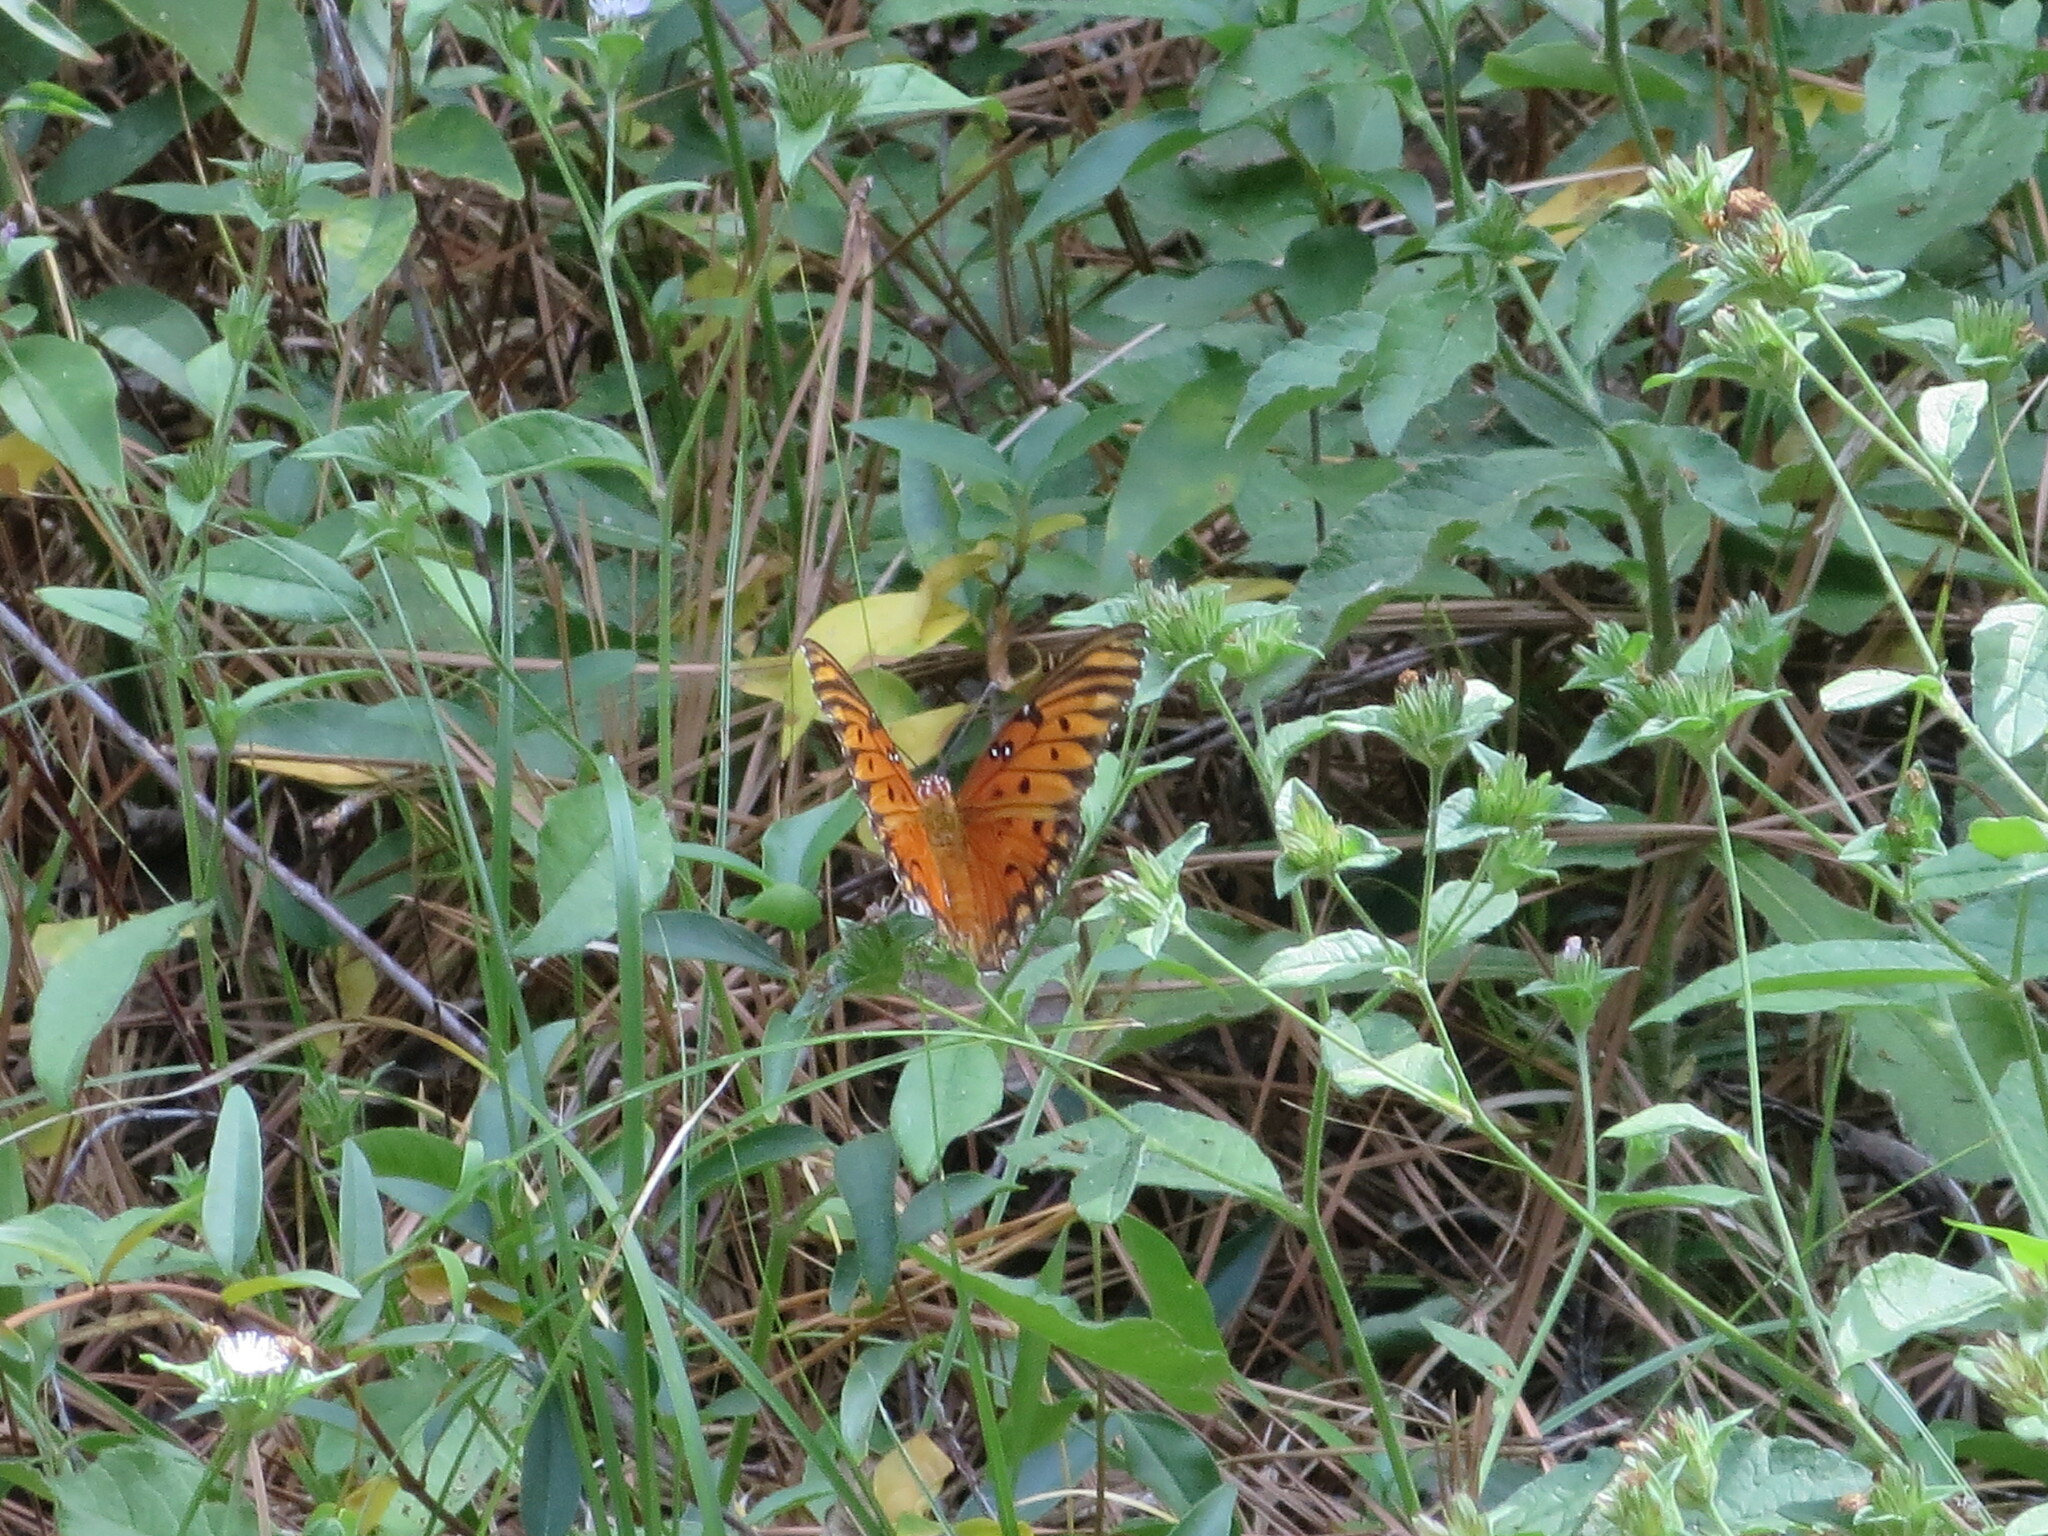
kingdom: Animalia
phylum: Arthropoda
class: Insecta
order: Lepidoptera
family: Nymphalidae
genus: Dione
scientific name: Dione vanillae
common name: Gulf fritillary
